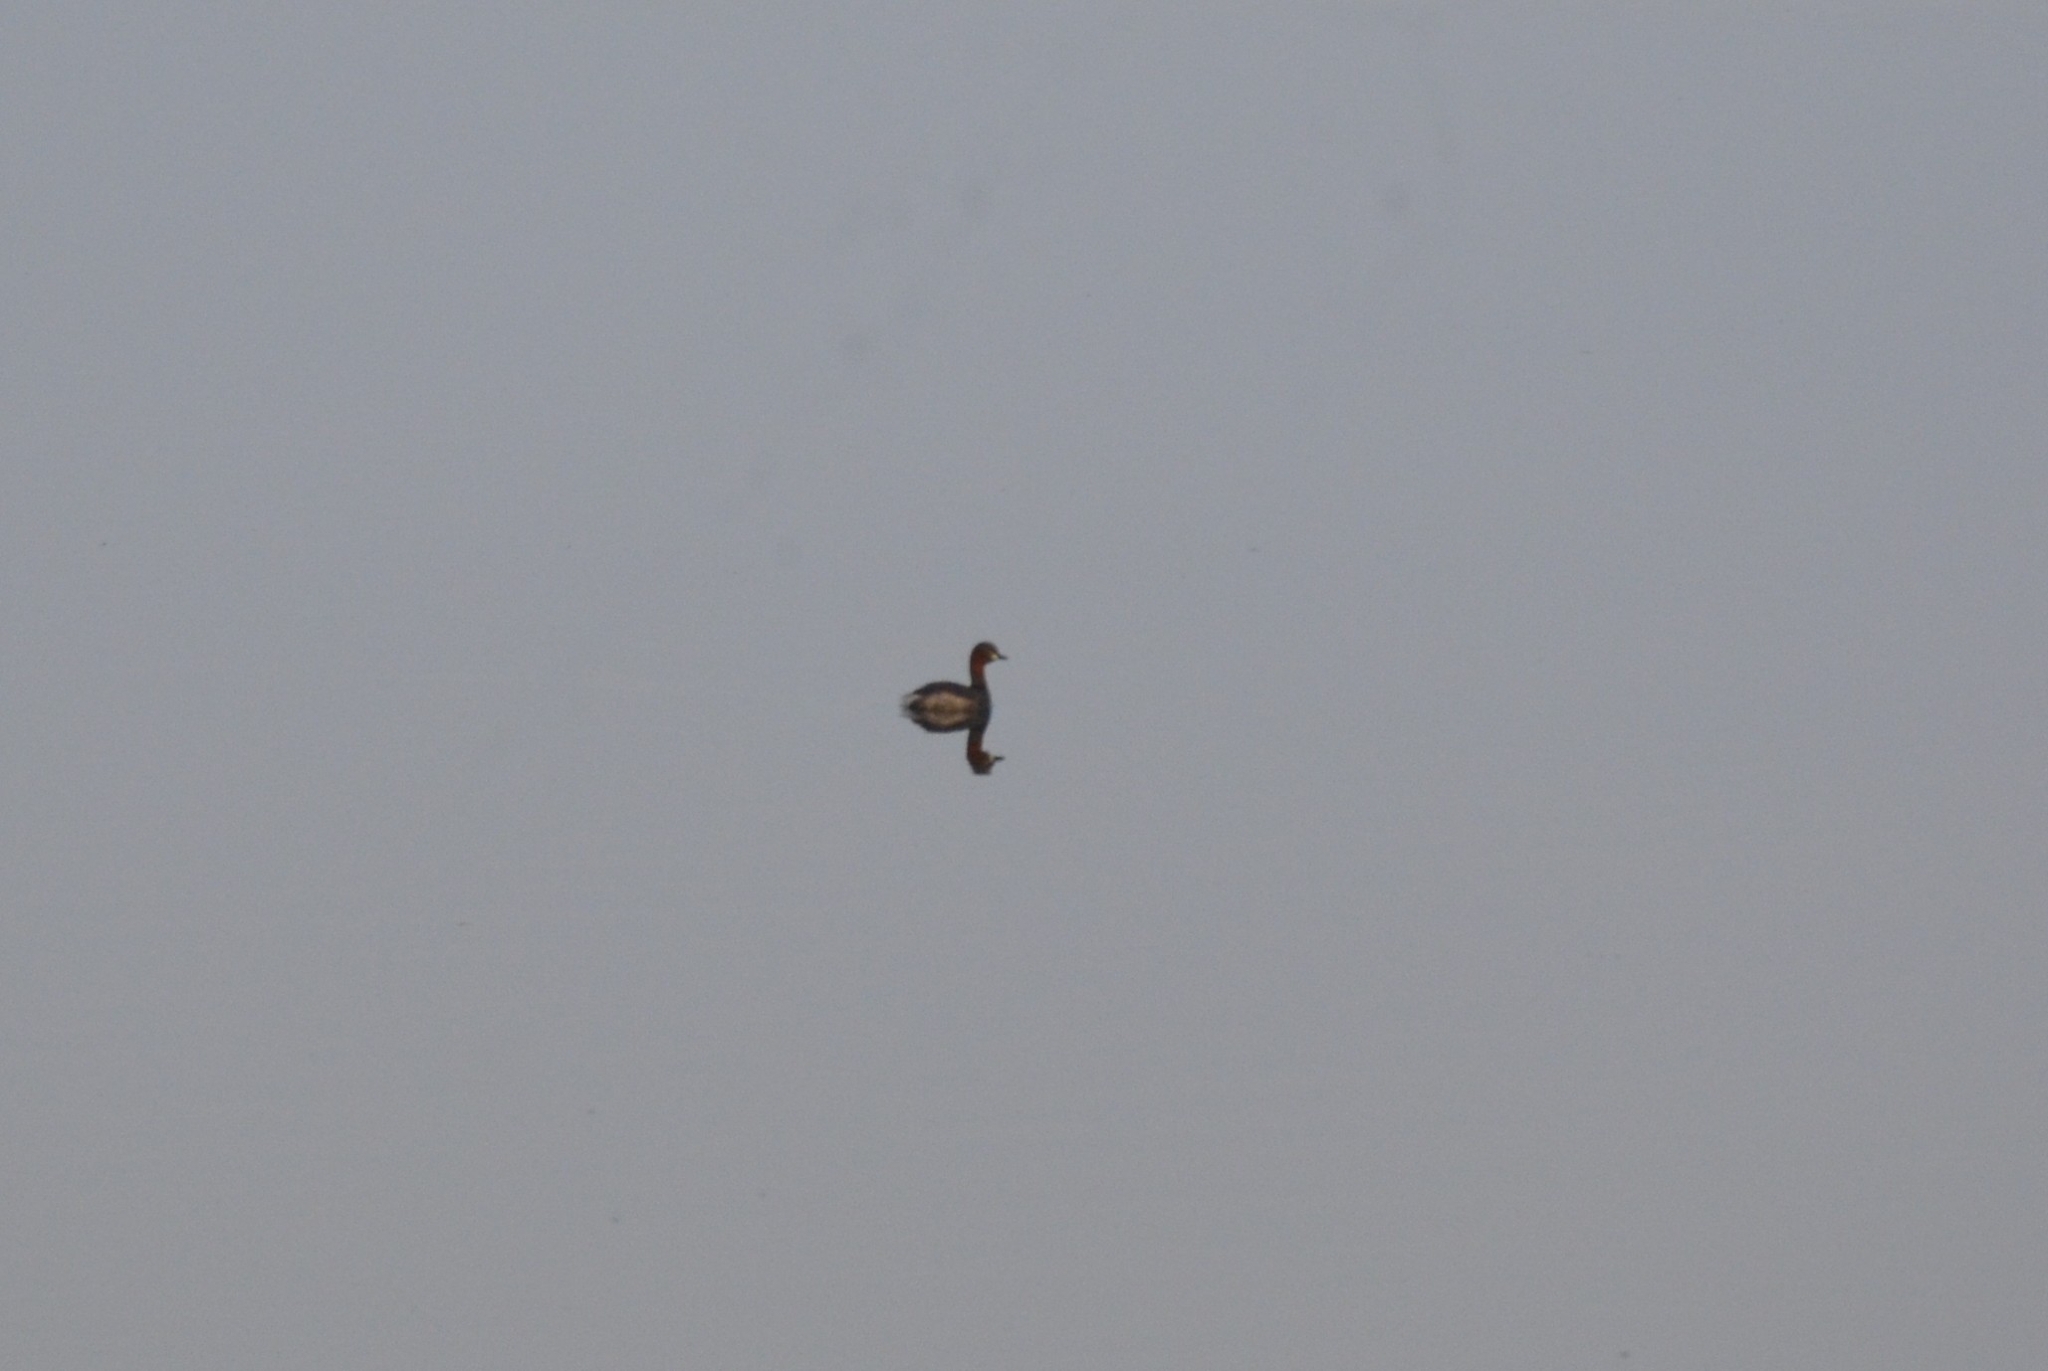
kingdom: Animalia
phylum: Chordata
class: Aves
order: Podicipediformes
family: Podicipedidae
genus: Tachybaptus
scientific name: Tachybaptus ruficollis
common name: Little grebe
